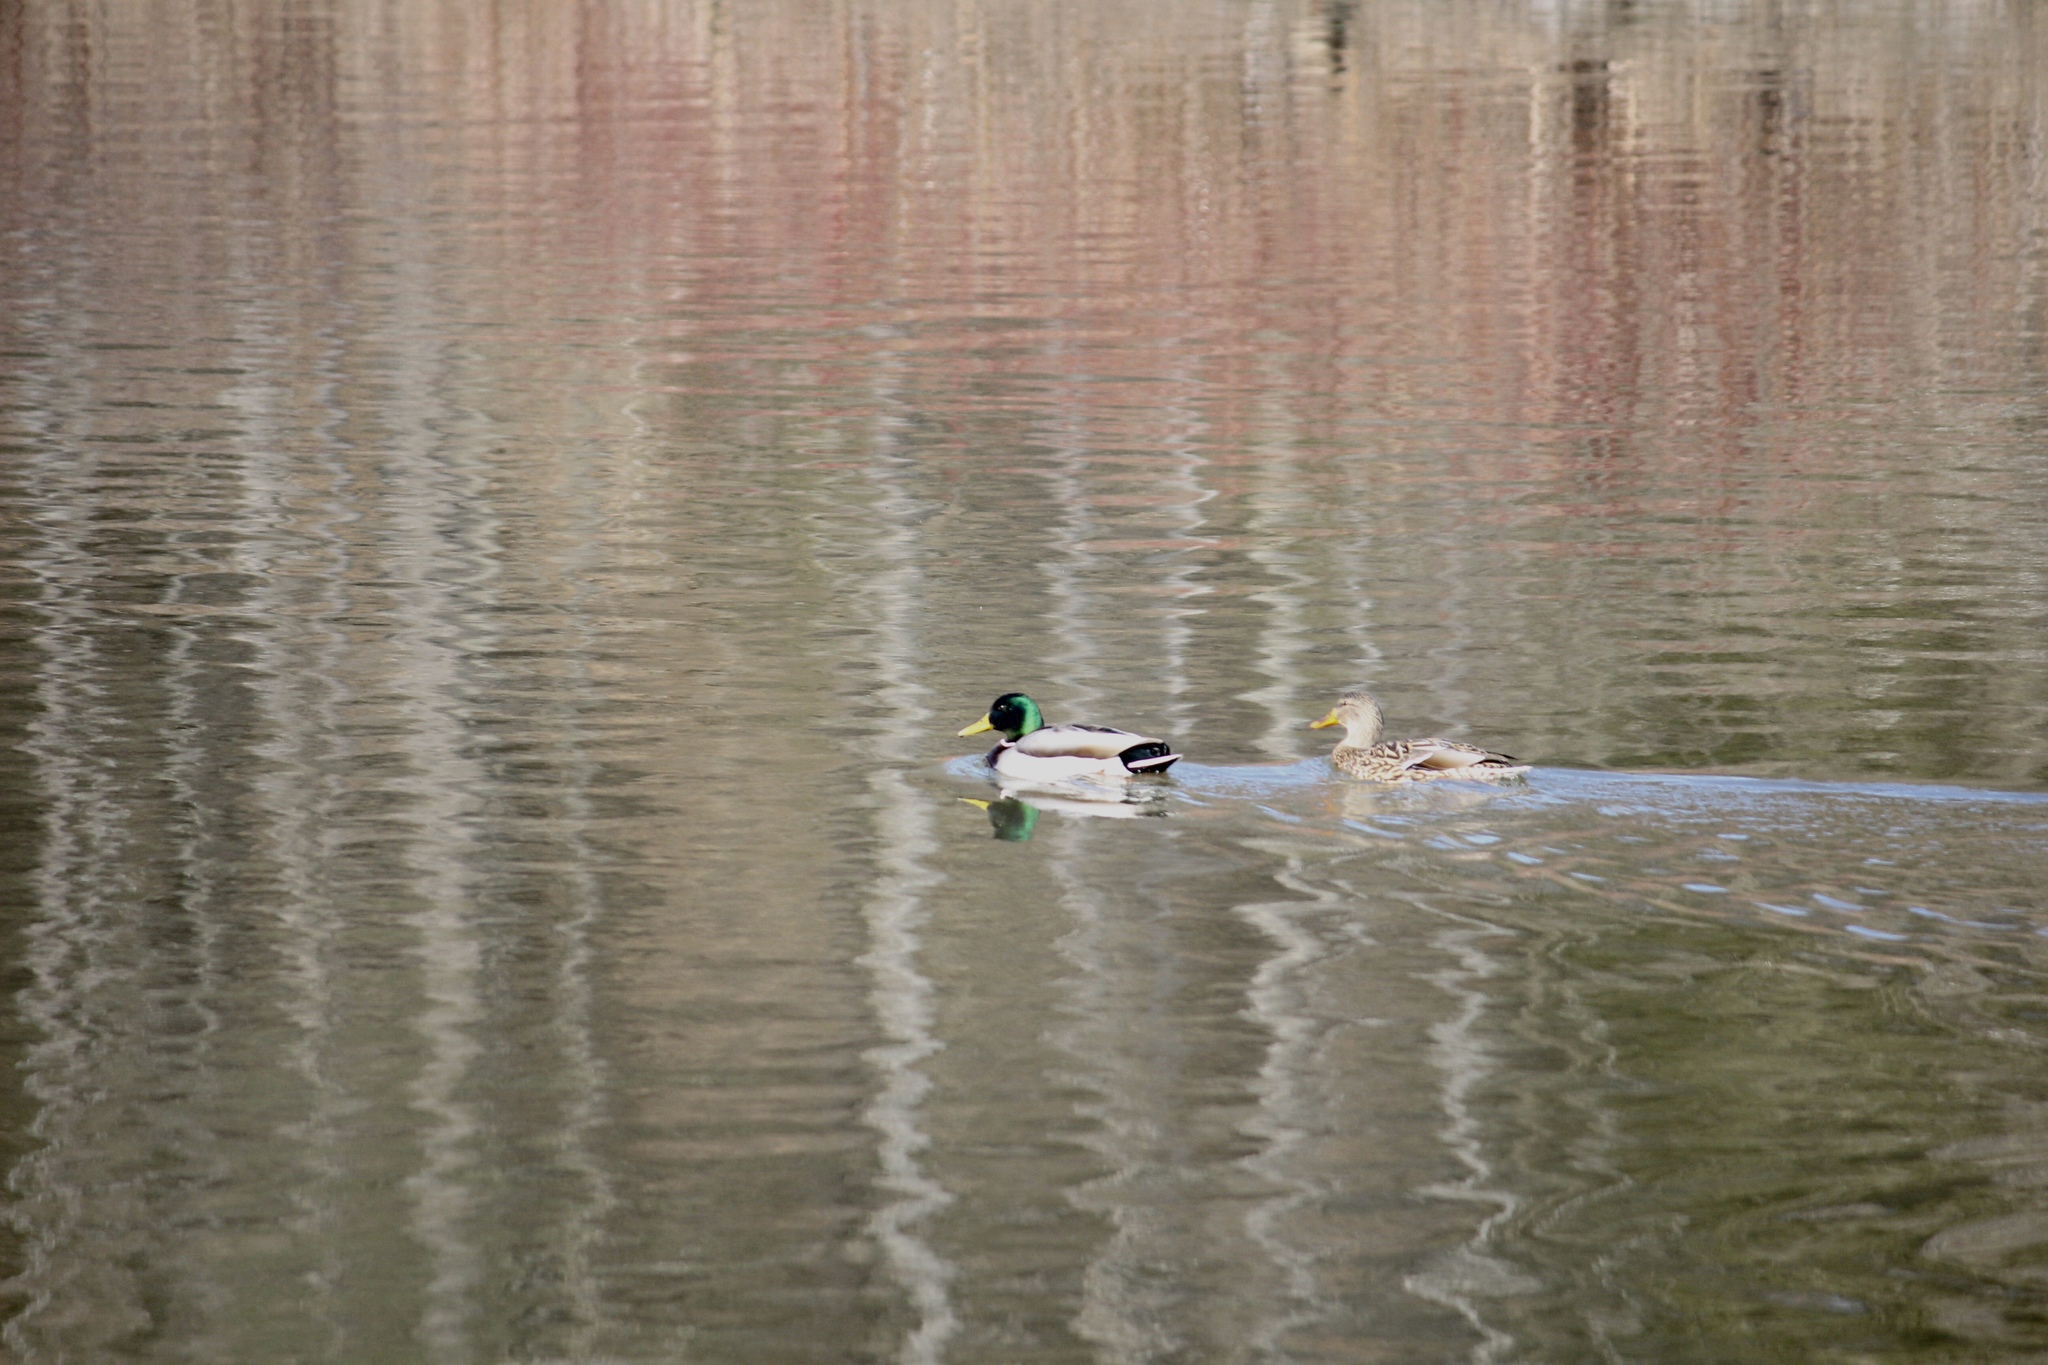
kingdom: Animalia
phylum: Chordata
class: Aves
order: Anseriformes
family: Anatidae
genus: Anas
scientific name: Anas platyrhynchos
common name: Mallard
